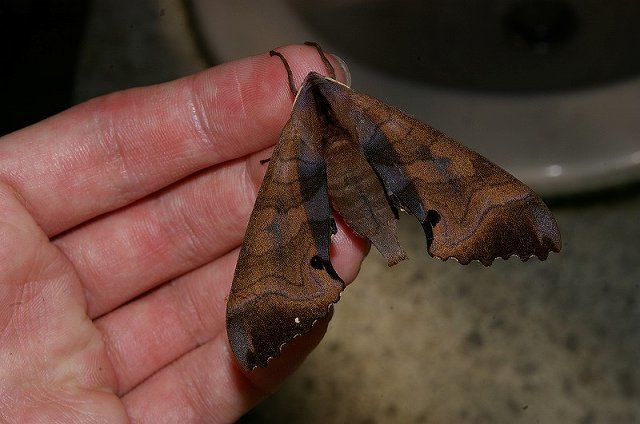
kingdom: Animalia
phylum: Arthropoda
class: Insecta
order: Lepidoptera
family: Sphingidae
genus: Marumba
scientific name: Marumba echephron
